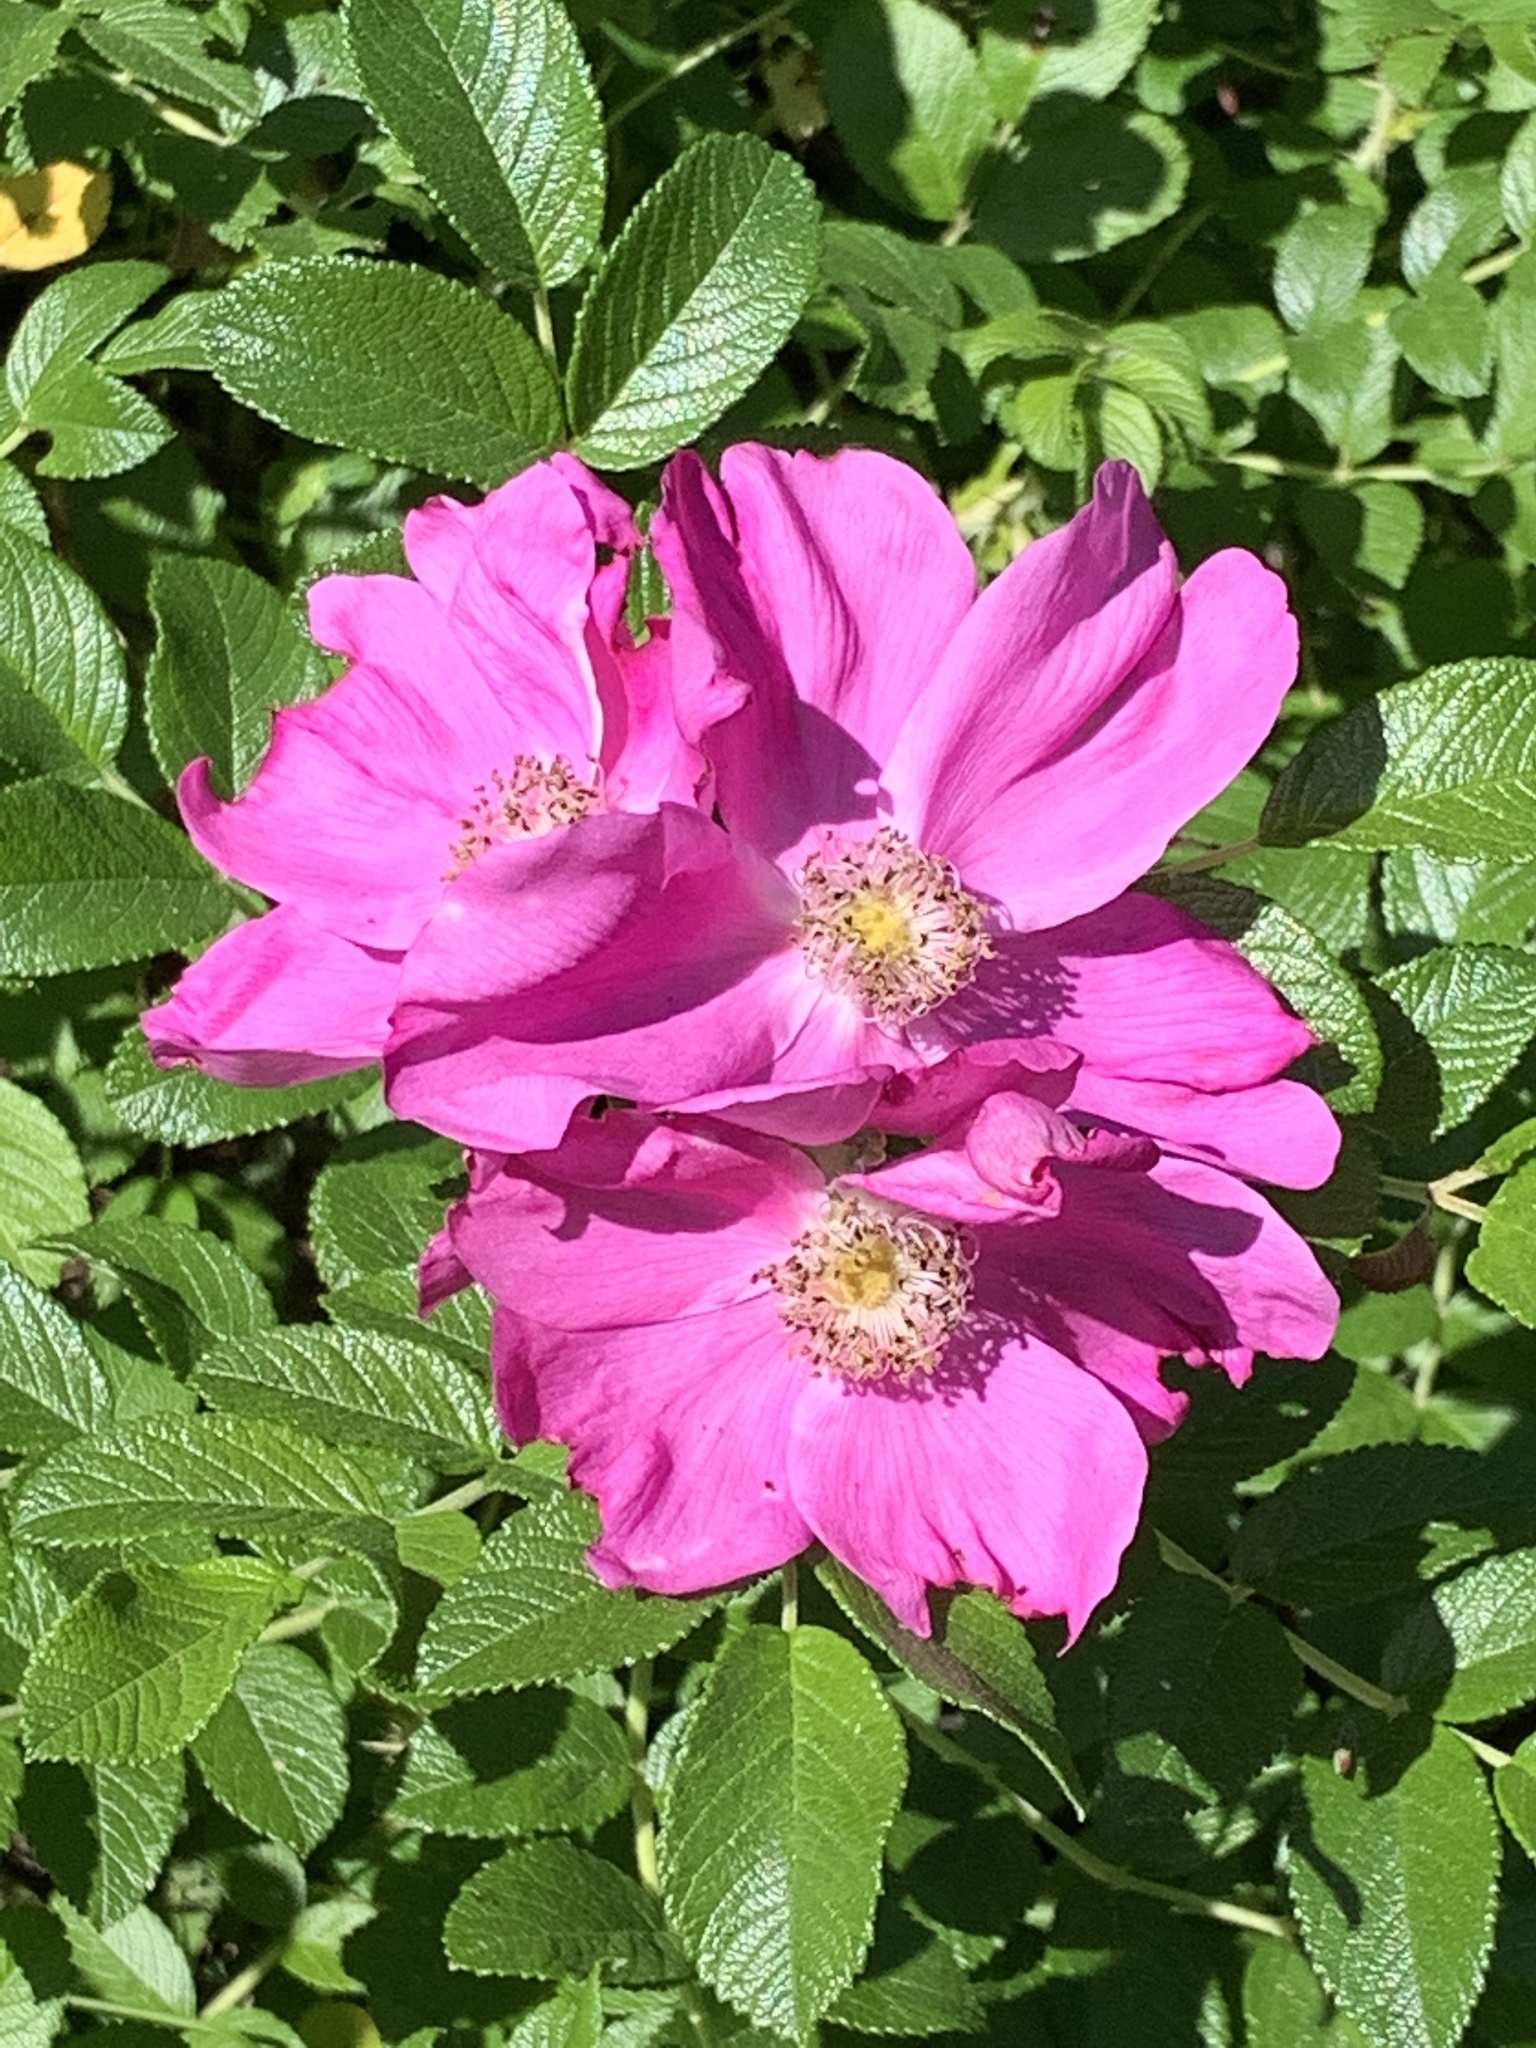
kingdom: Plantae
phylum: Tracheophyta
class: Magnoliopsida
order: Rosales
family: Rosaceae
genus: Rosa
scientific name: Rosa rugosa
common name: Japanese rose
